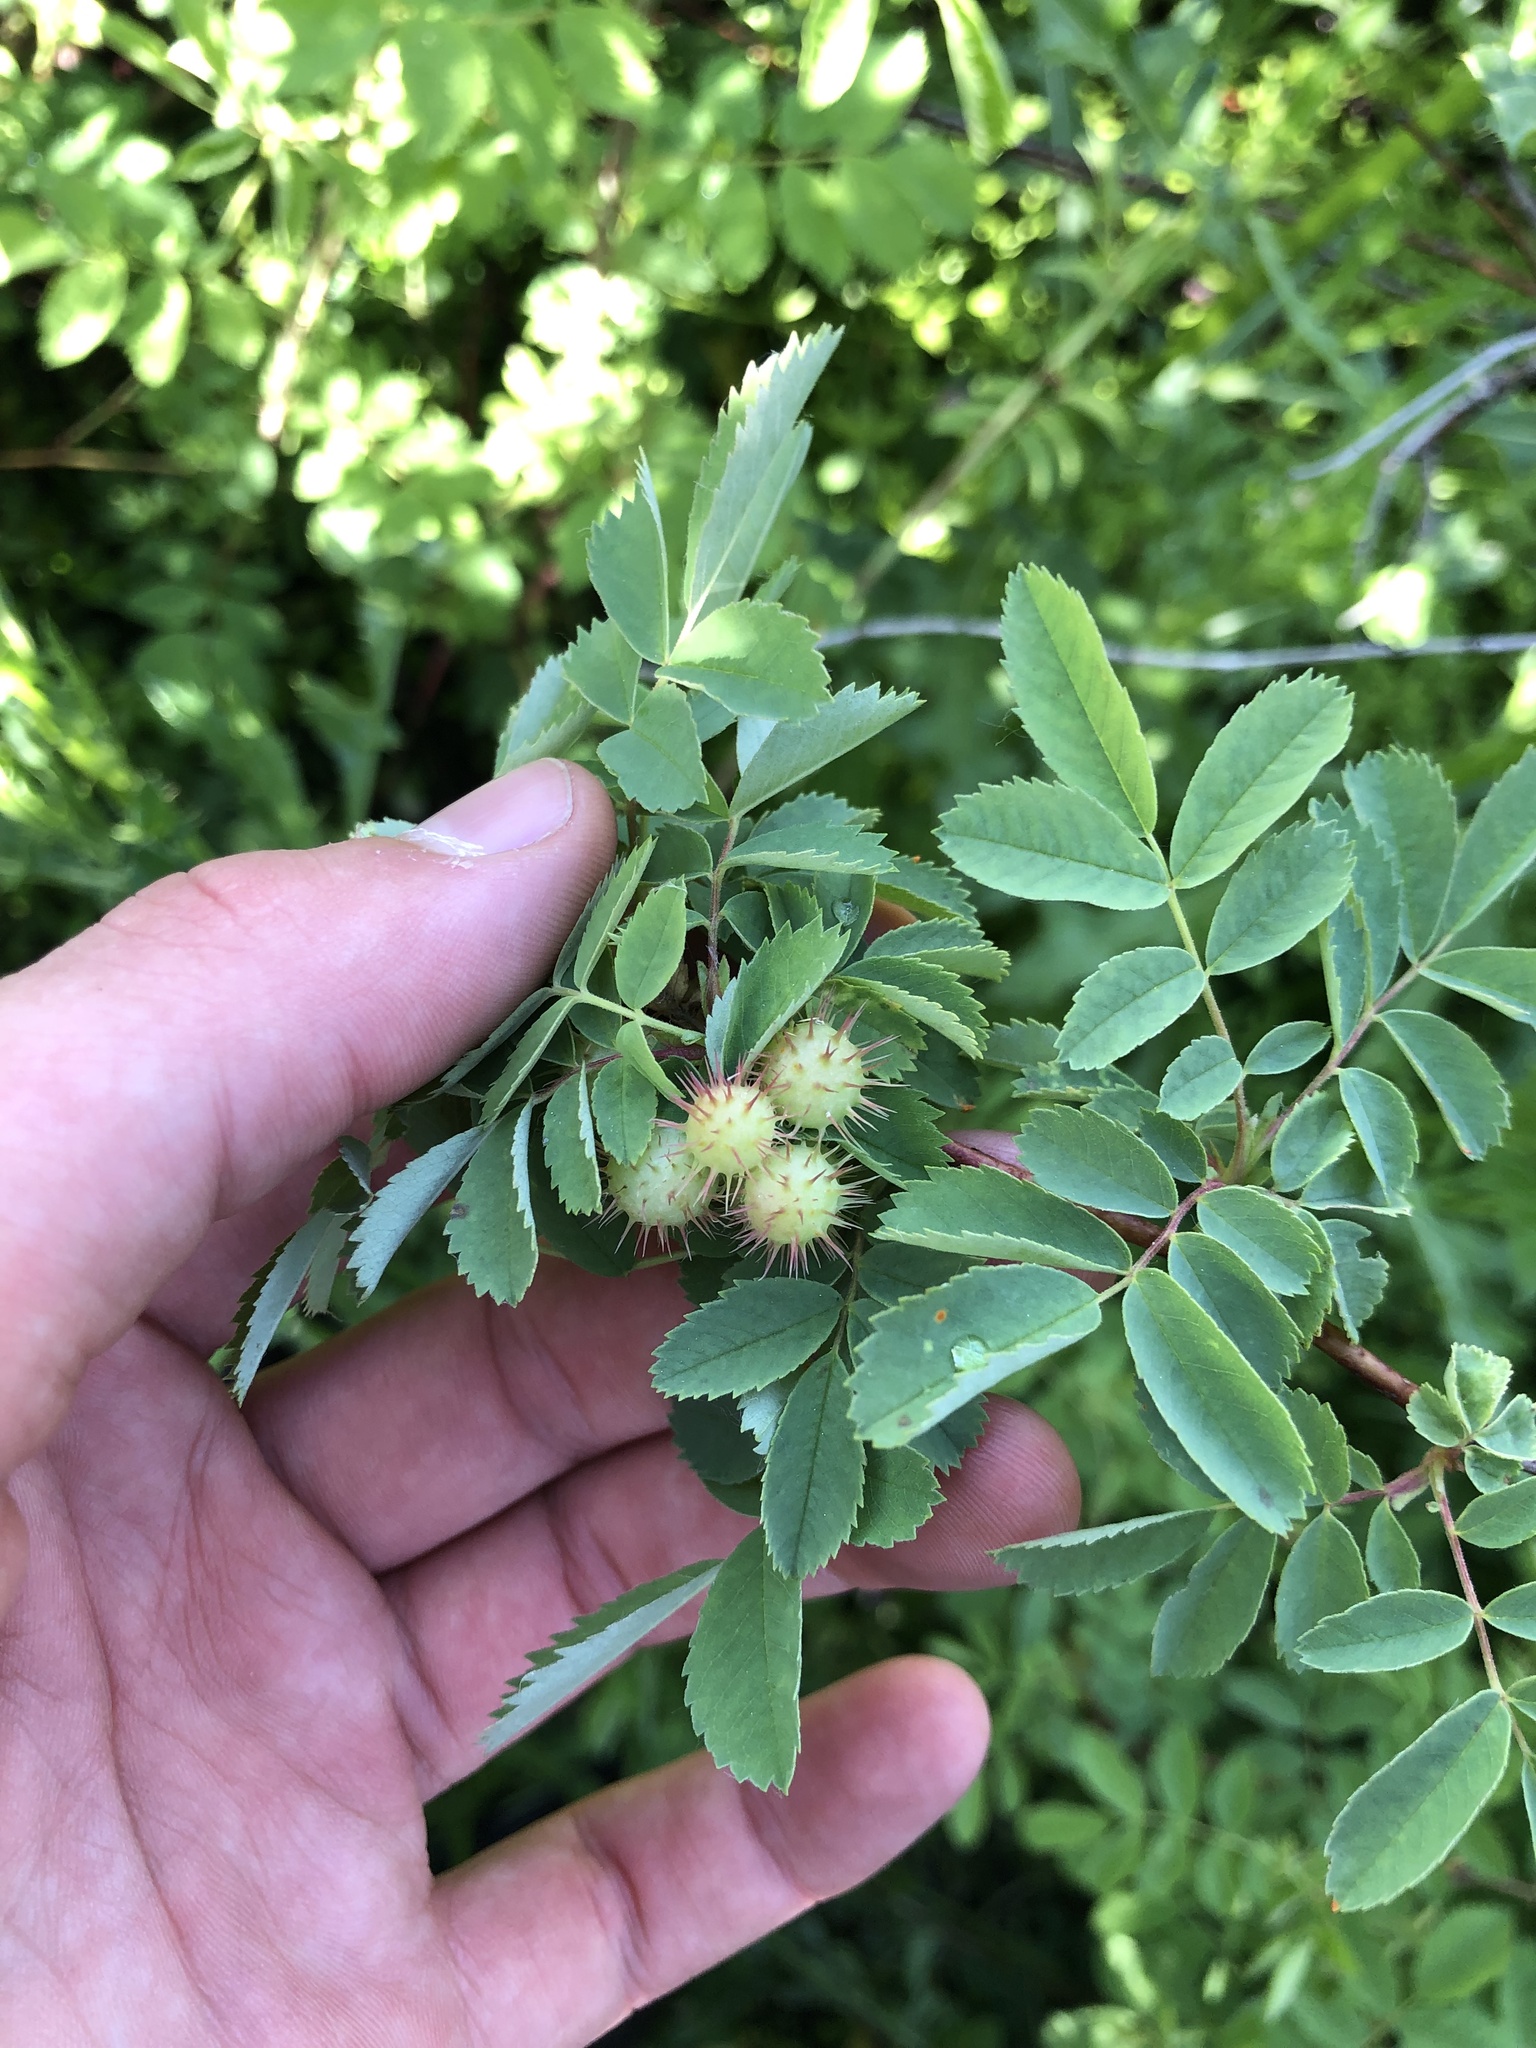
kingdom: Animalia
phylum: Arthropoda
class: Insecta
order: Hymenoptera
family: Cynipidae
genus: Diplolepis
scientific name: Diplolepis polita
